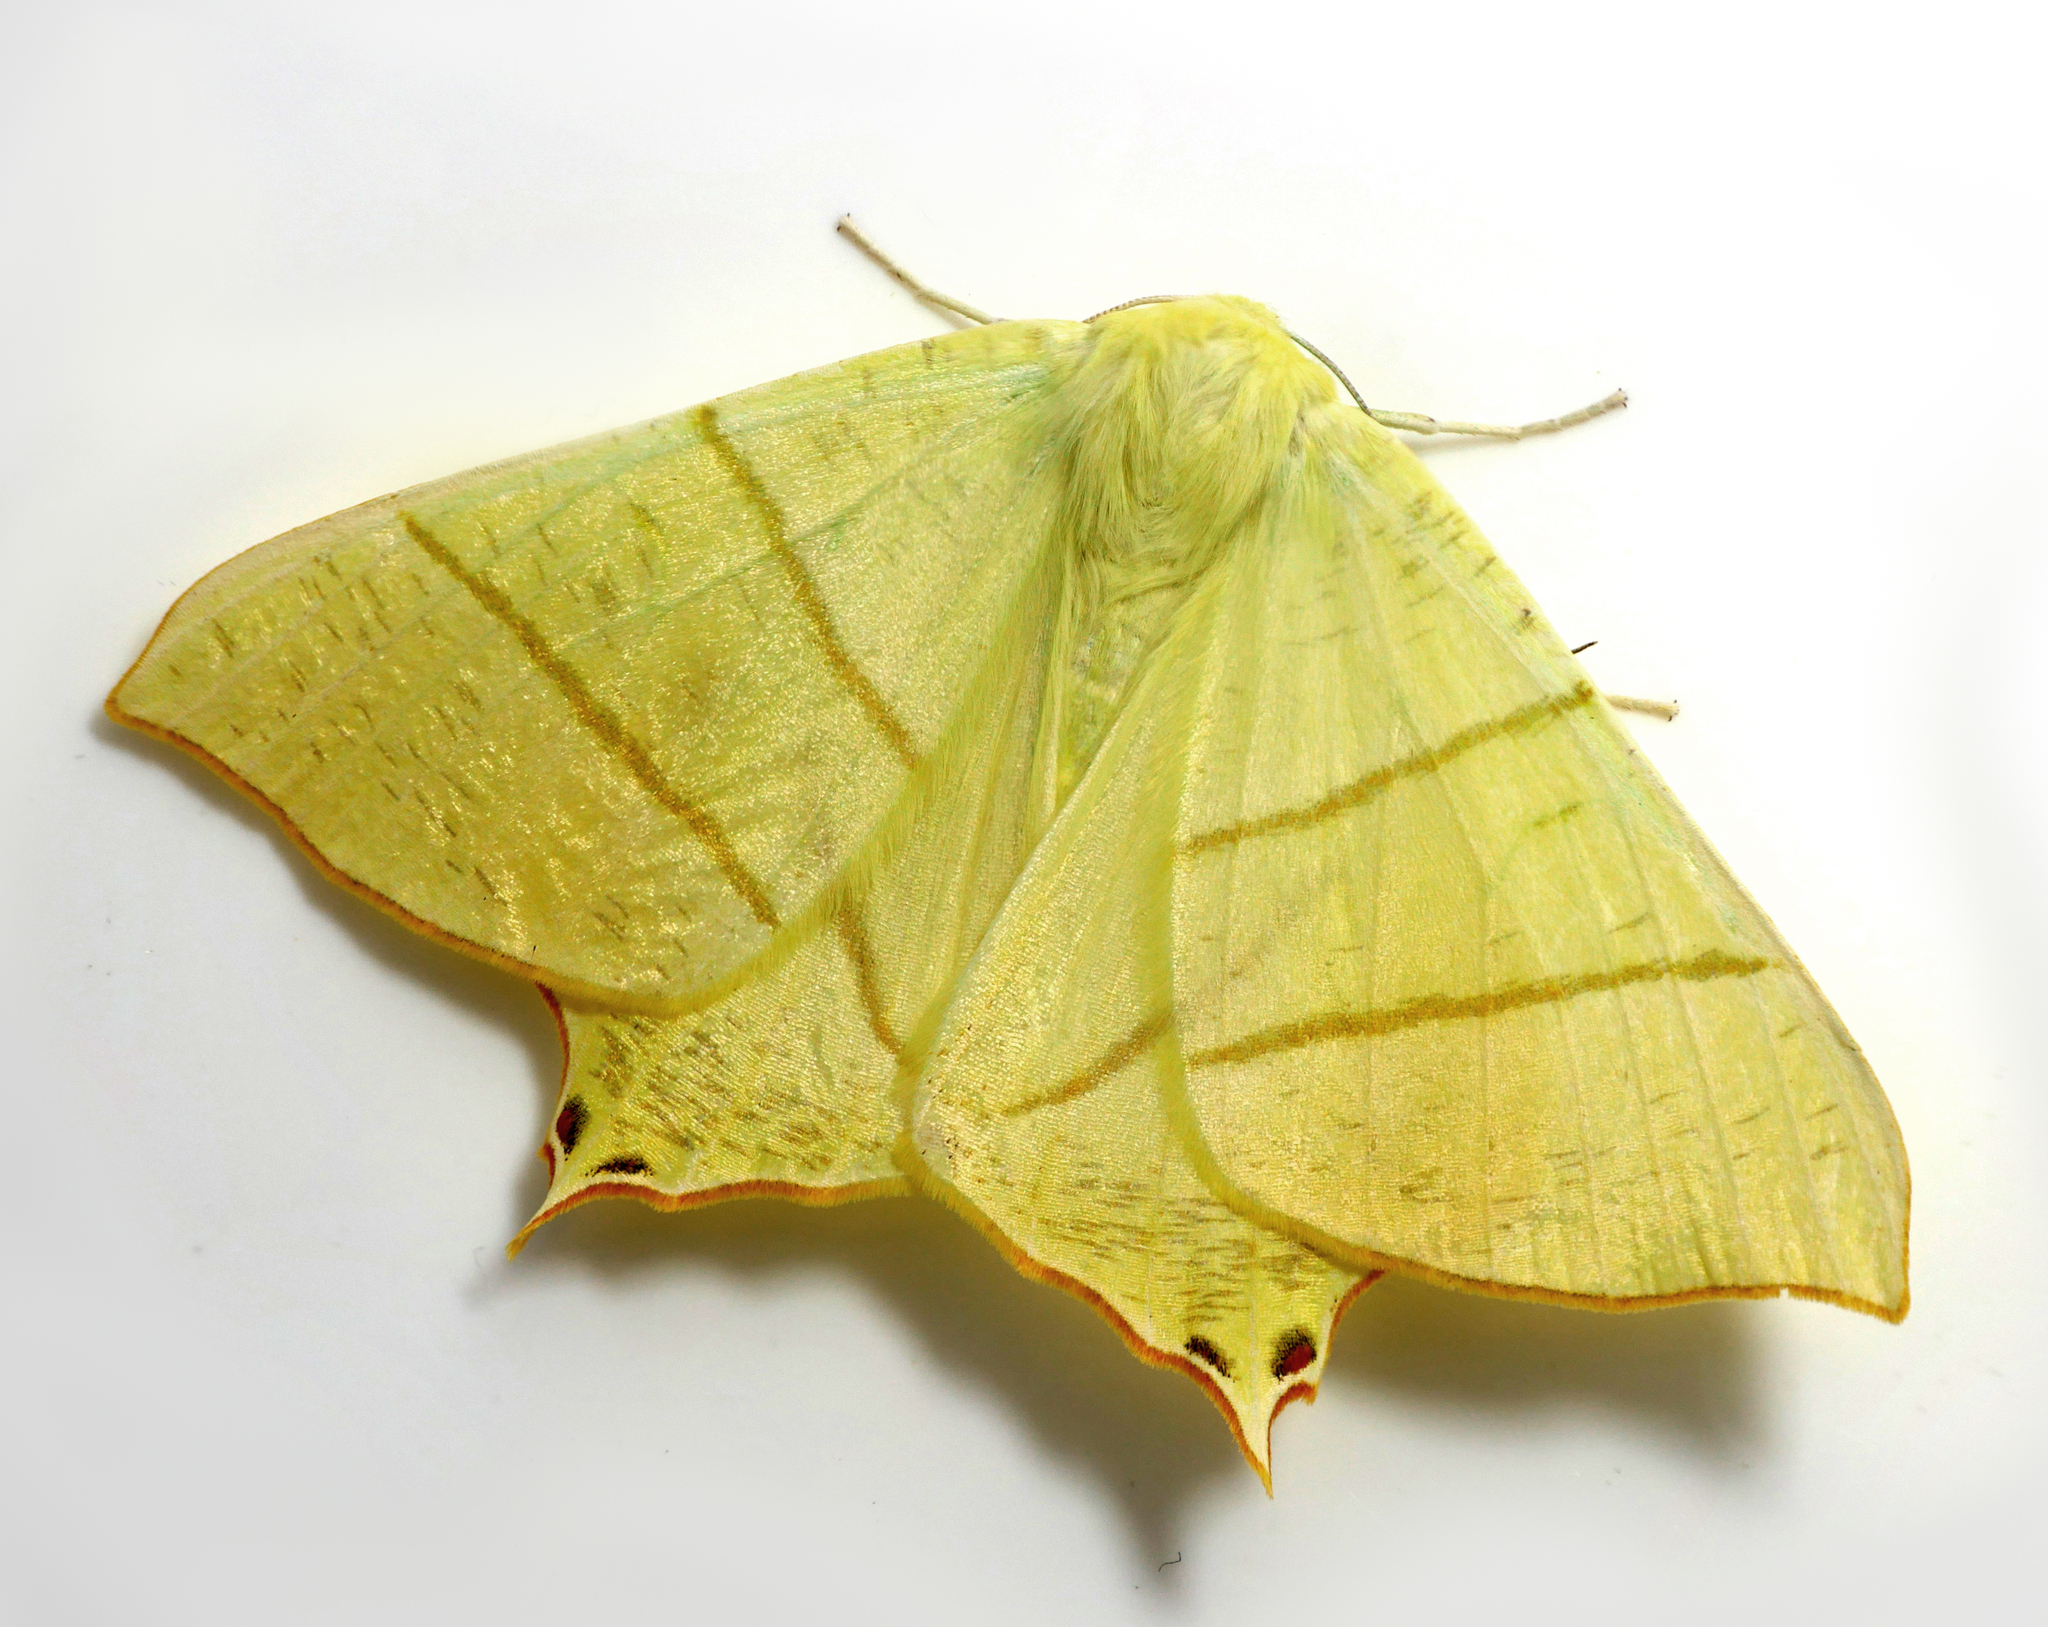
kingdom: Animalia
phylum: Arthropoda
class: Insecta
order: Lepidoptera
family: Geometridae
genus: Ourapteryx
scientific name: Ourapteryx sambucaria
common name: Swallow-tailed moth
